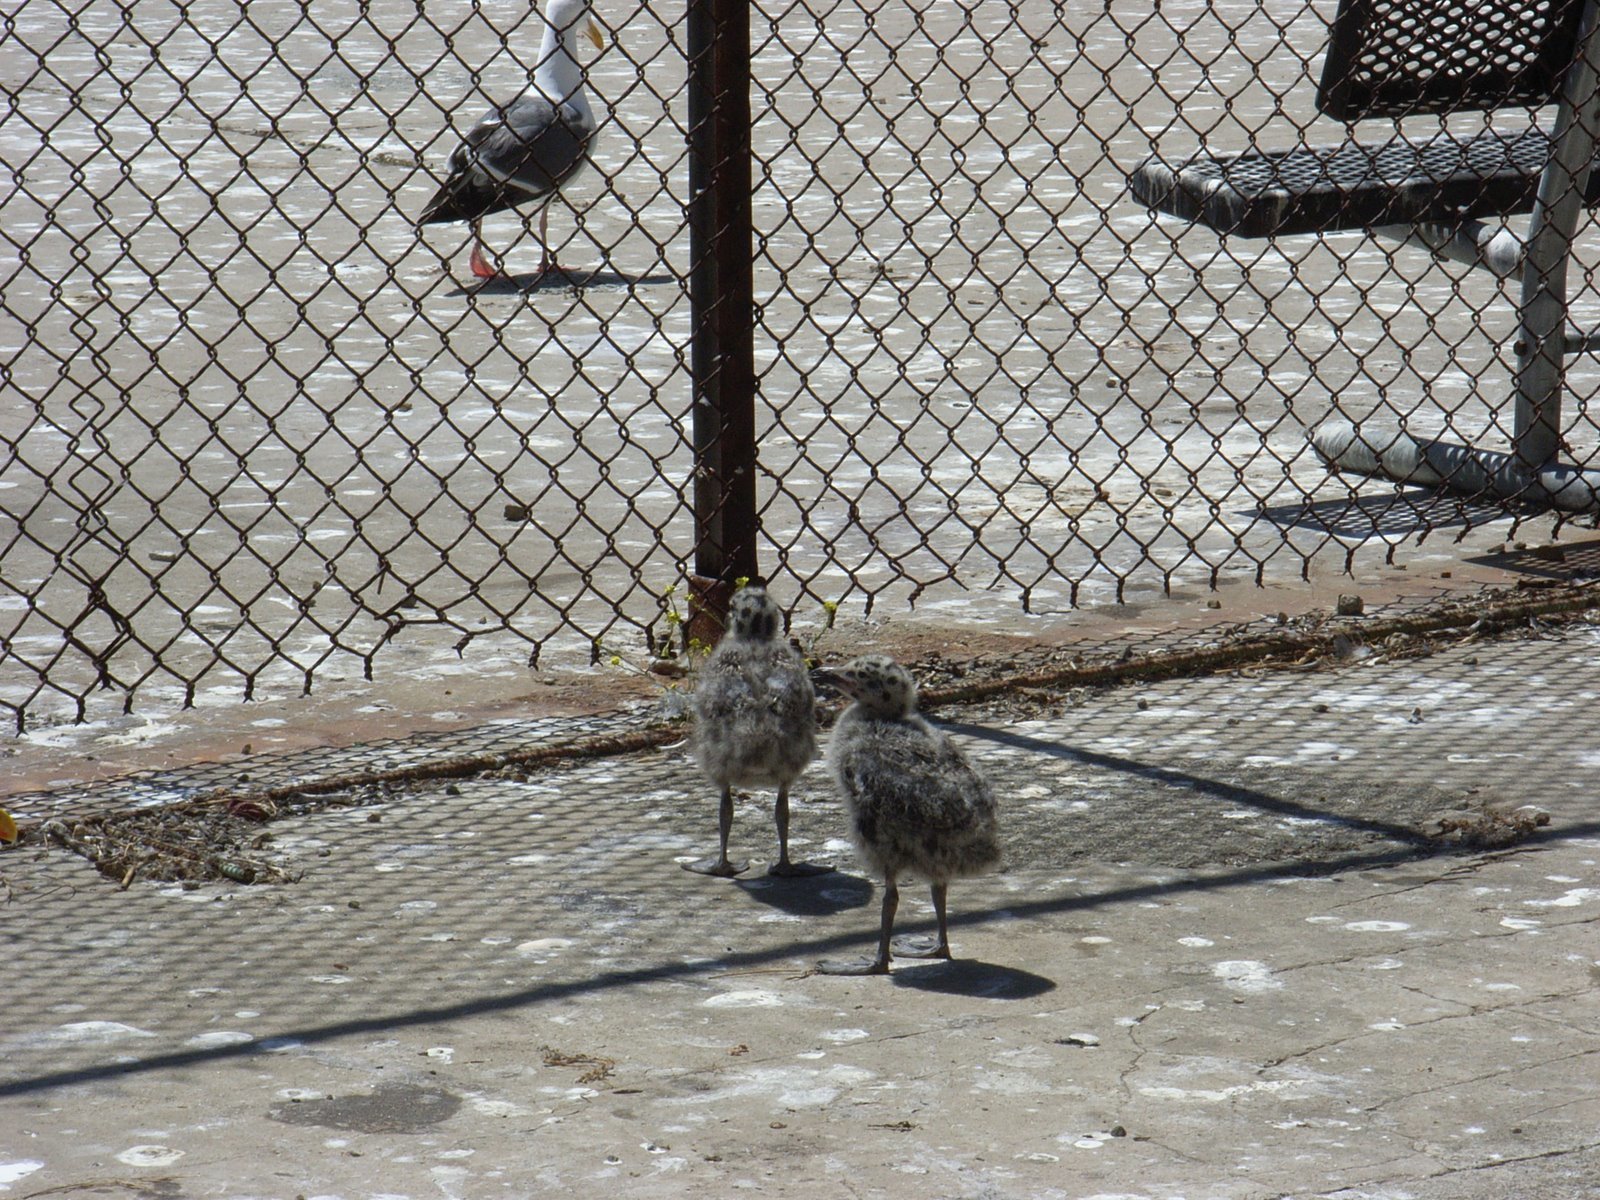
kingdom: Animalia
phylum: Chordata
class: Aves
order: Charadriiformes
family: Laridae
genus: Larus
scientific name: Larus occidentalis
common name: Western gull
